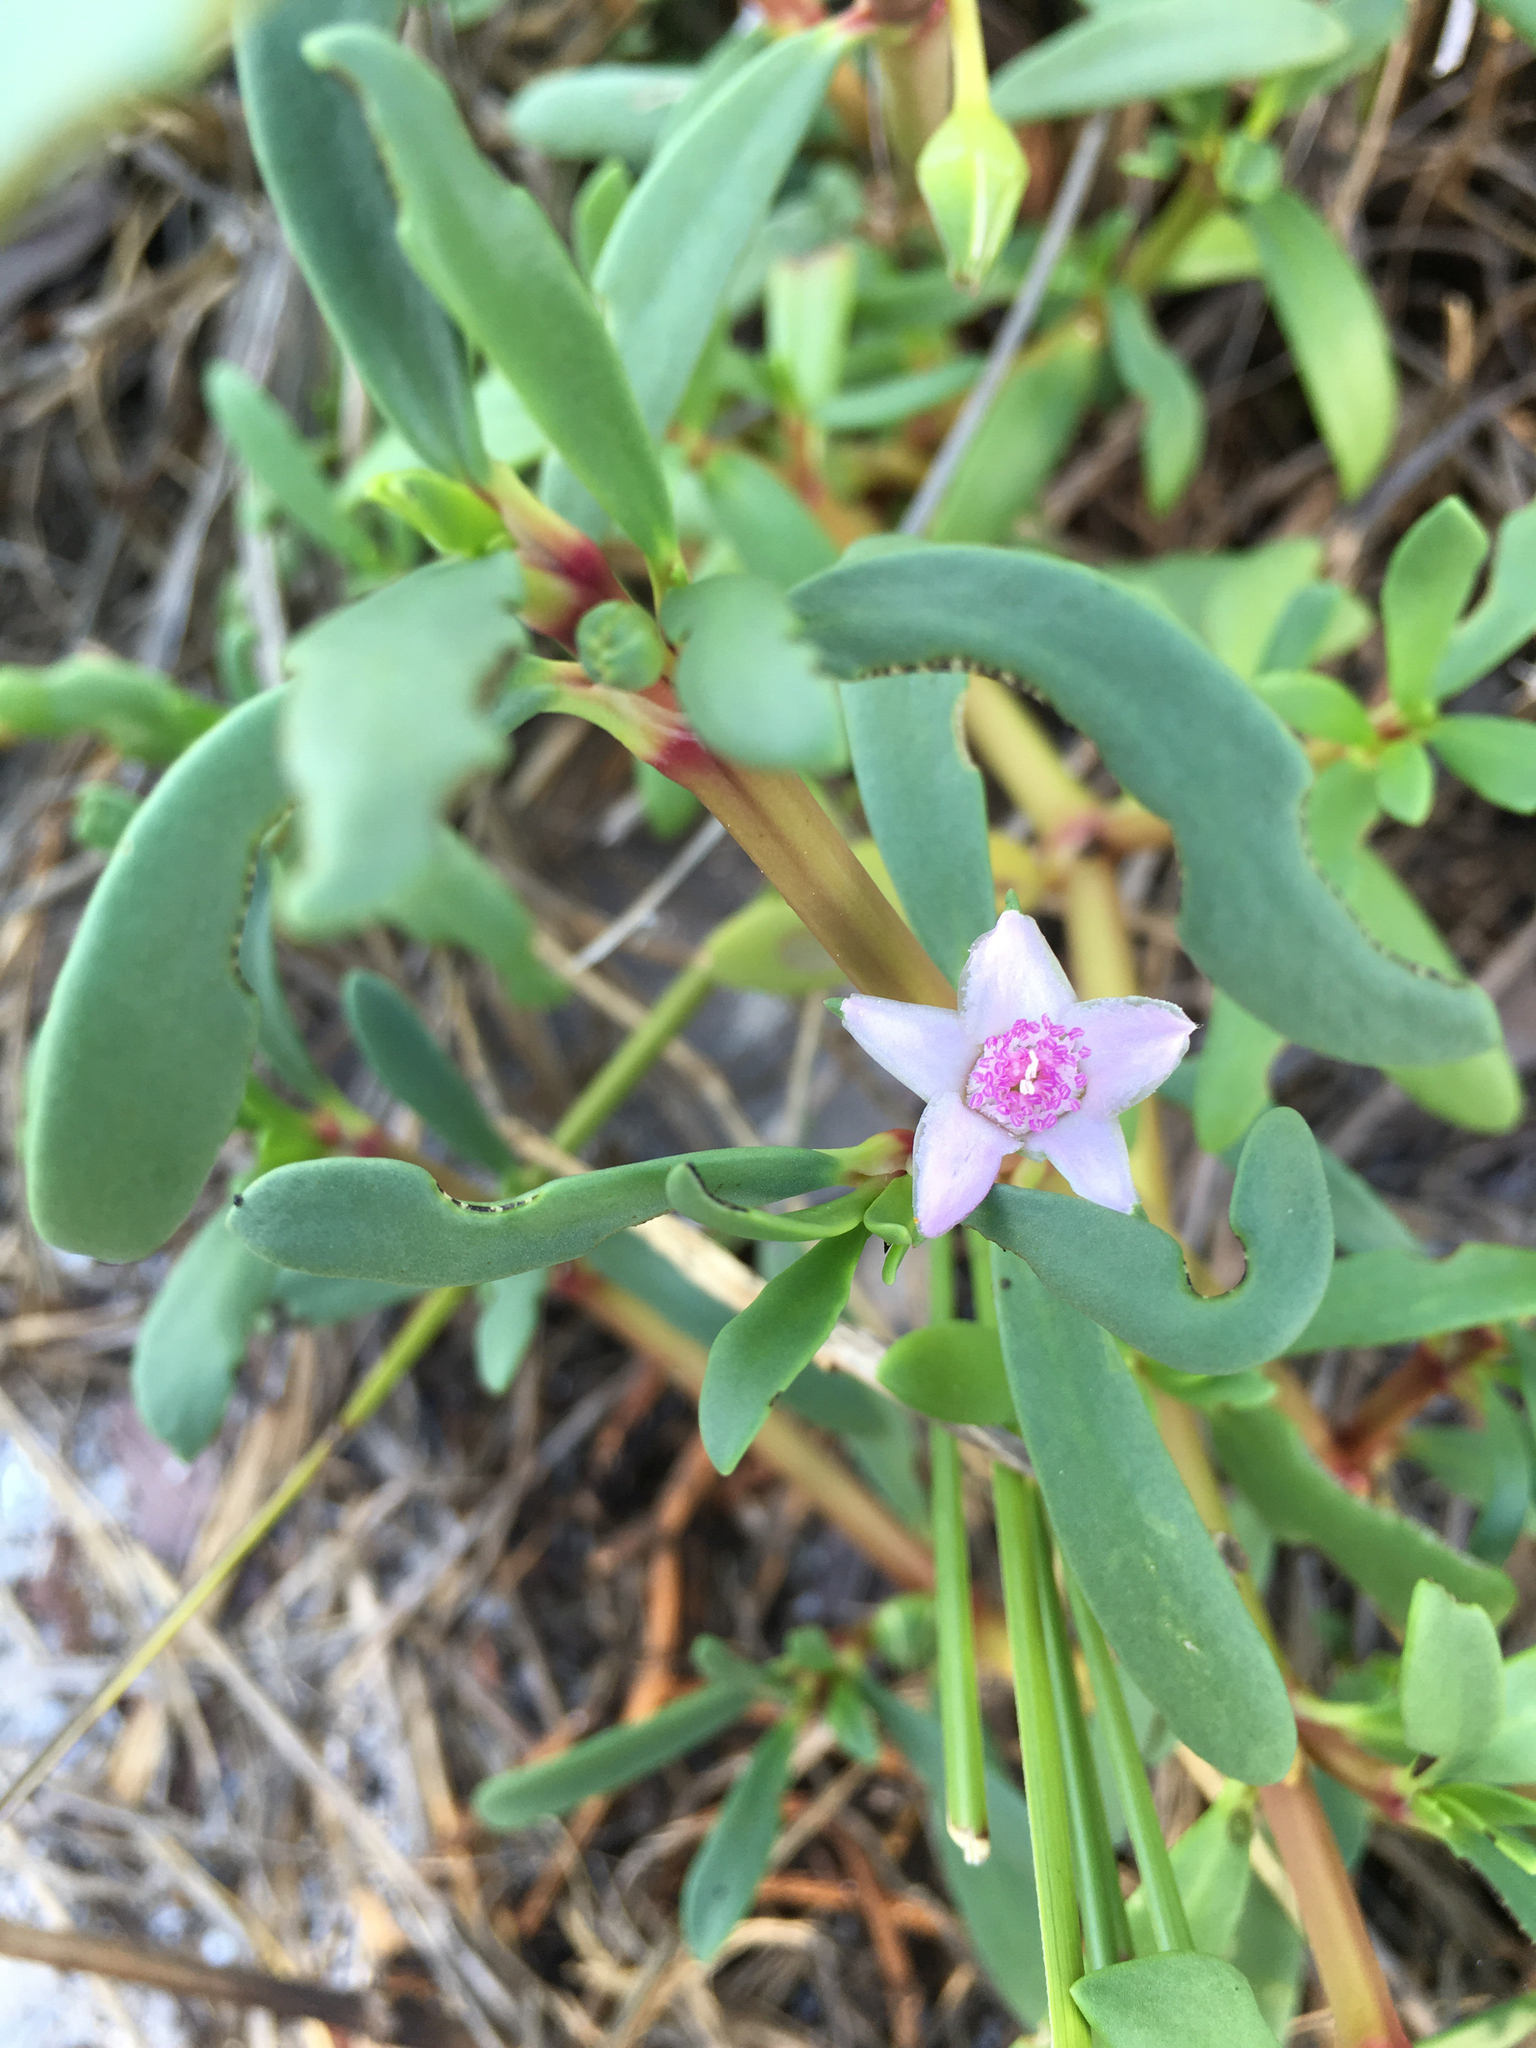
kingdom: Plantae
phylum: Tracheophyta
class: Magnoliopsida
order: Caryophyllales
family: Aizoaceae
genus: Sesuvium
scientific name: Sesuvium portulacastrum
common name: Sea-purslane
